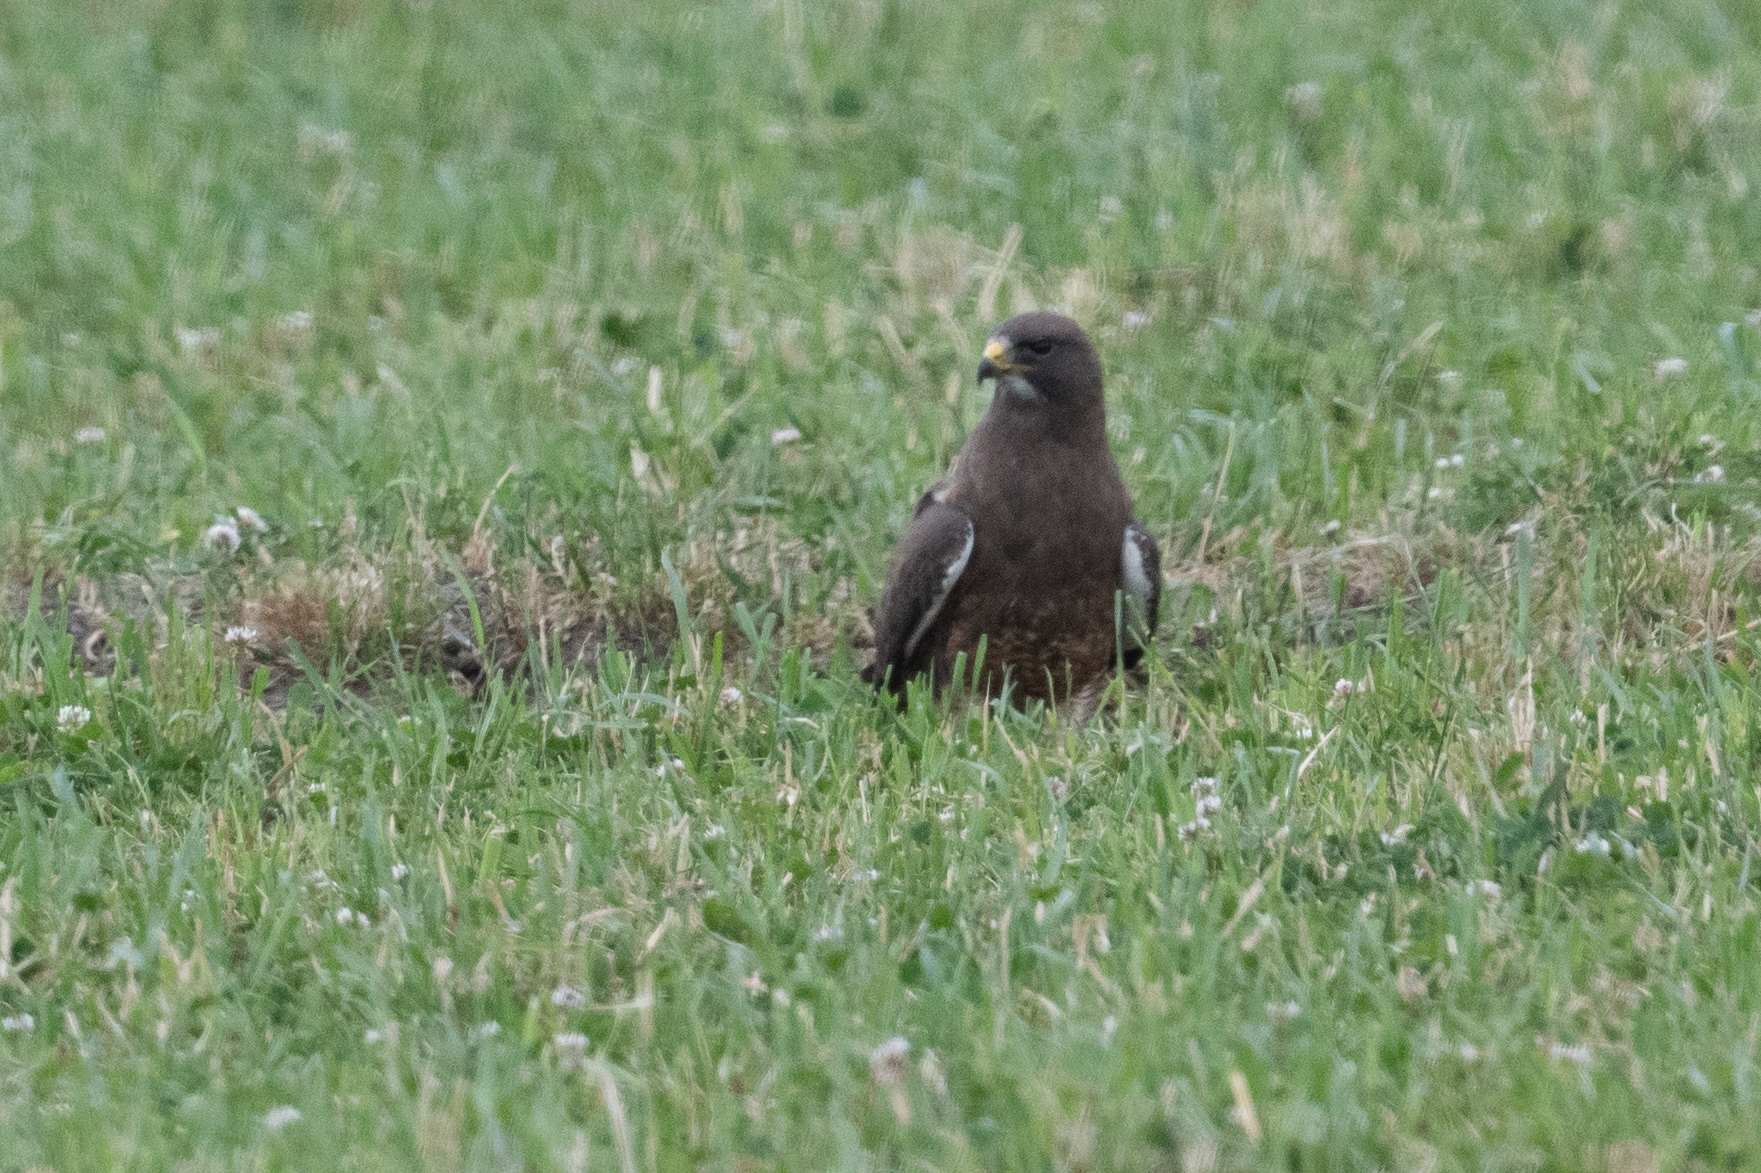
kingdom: Animalia
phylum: Chordata
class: Aves
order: Accipitriformes
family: Accipitridae
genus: Buteo
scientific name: Buteo swainsoni
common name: Swainson's hawk
